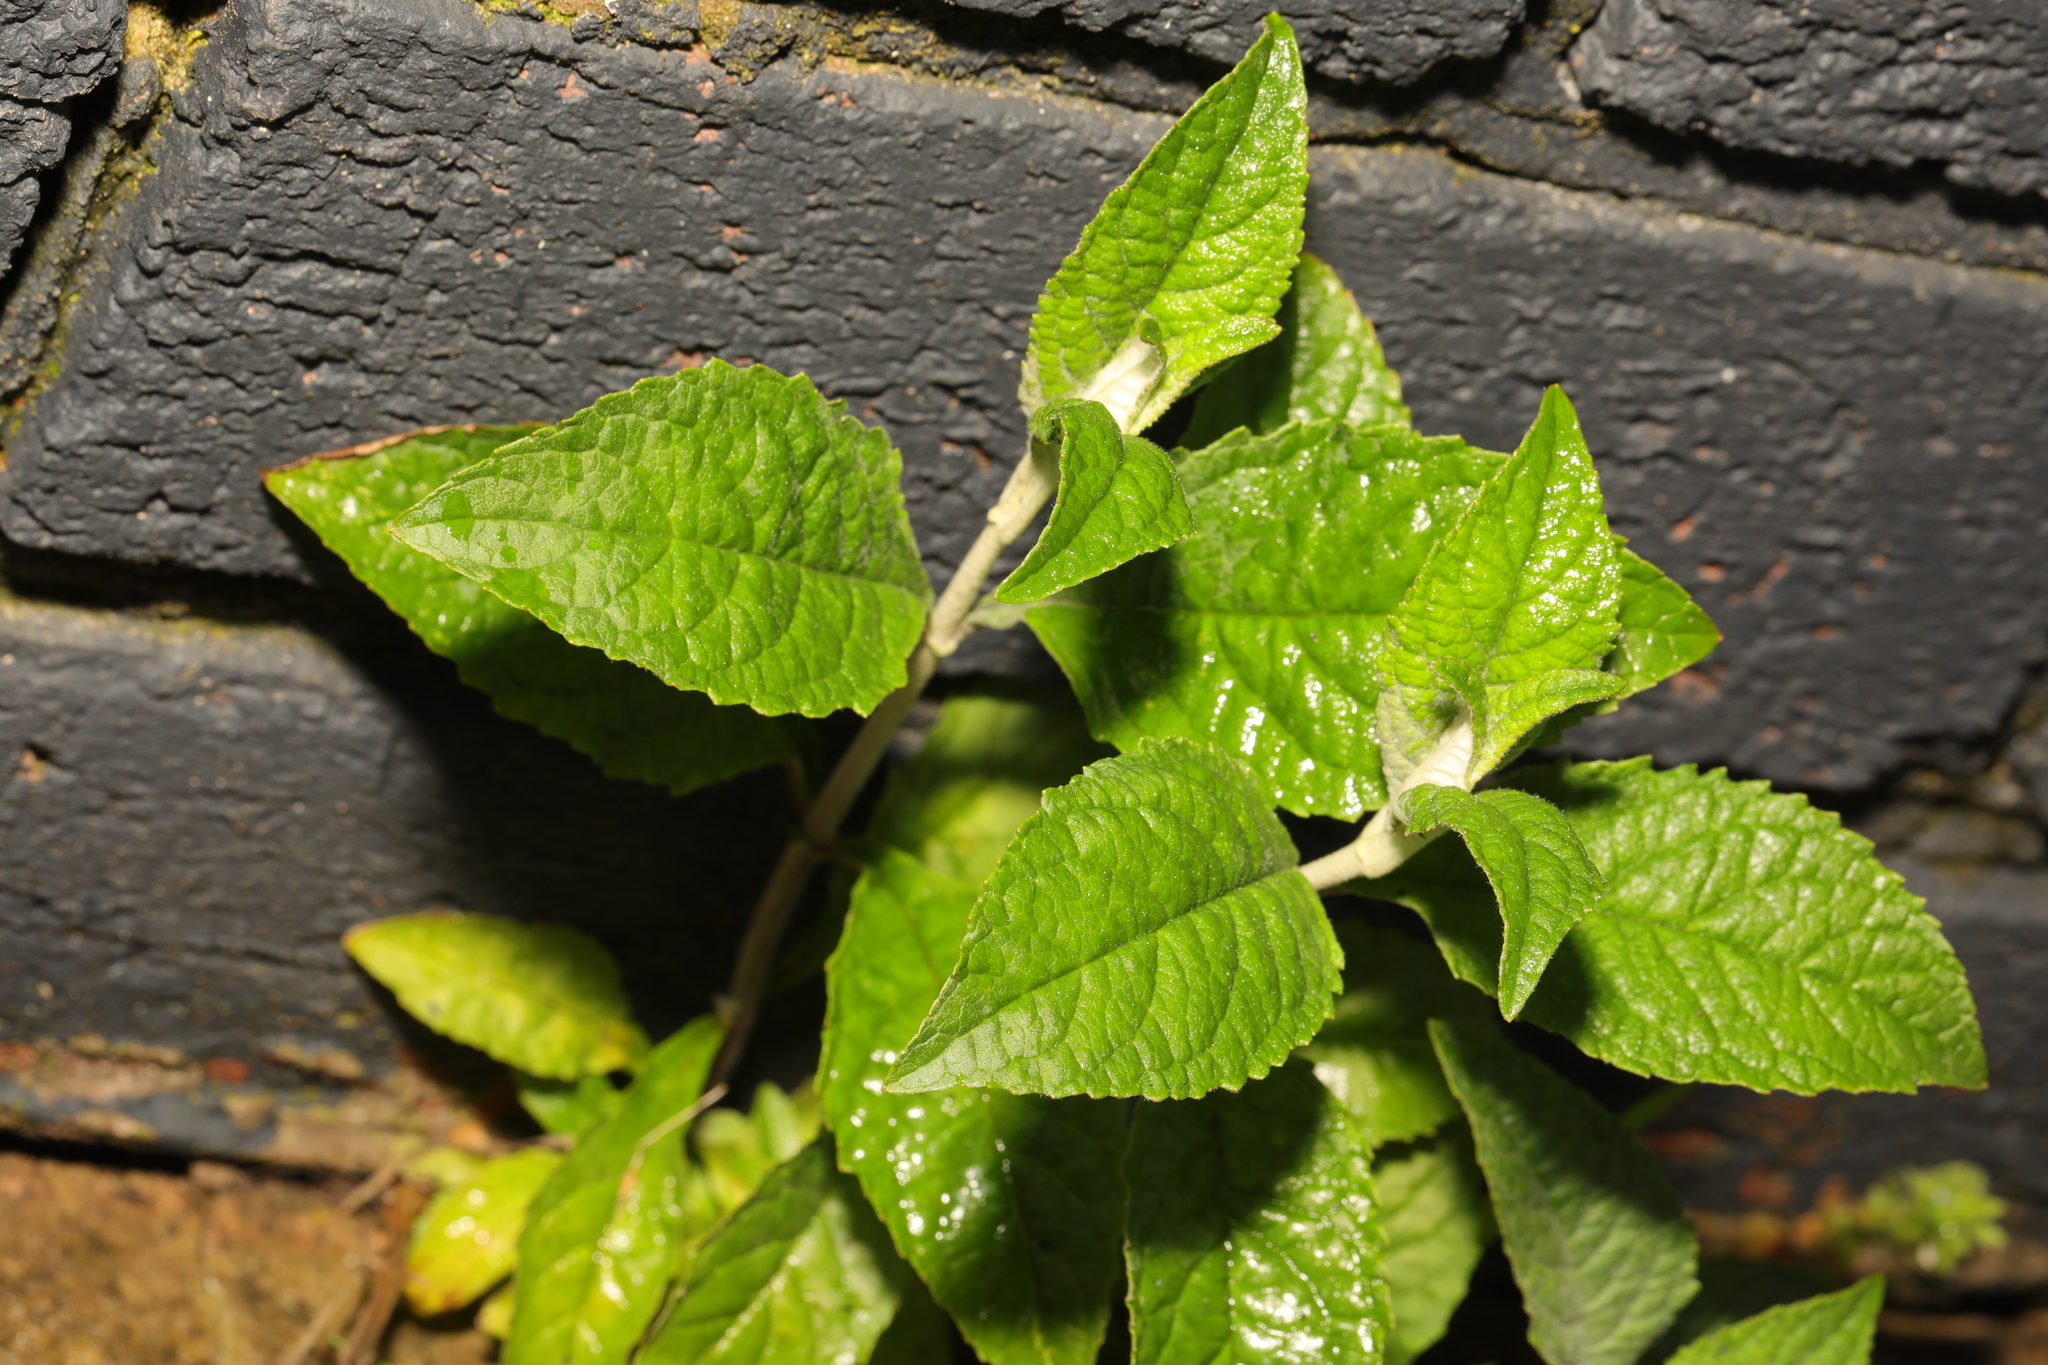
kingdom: Plantae
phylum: Tracheophyta
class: Magnoliopsida
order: Lamiales
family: Scrophulariaceae
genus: Buddleja
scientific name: Buddleja davidii
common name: Butterfly-bush
